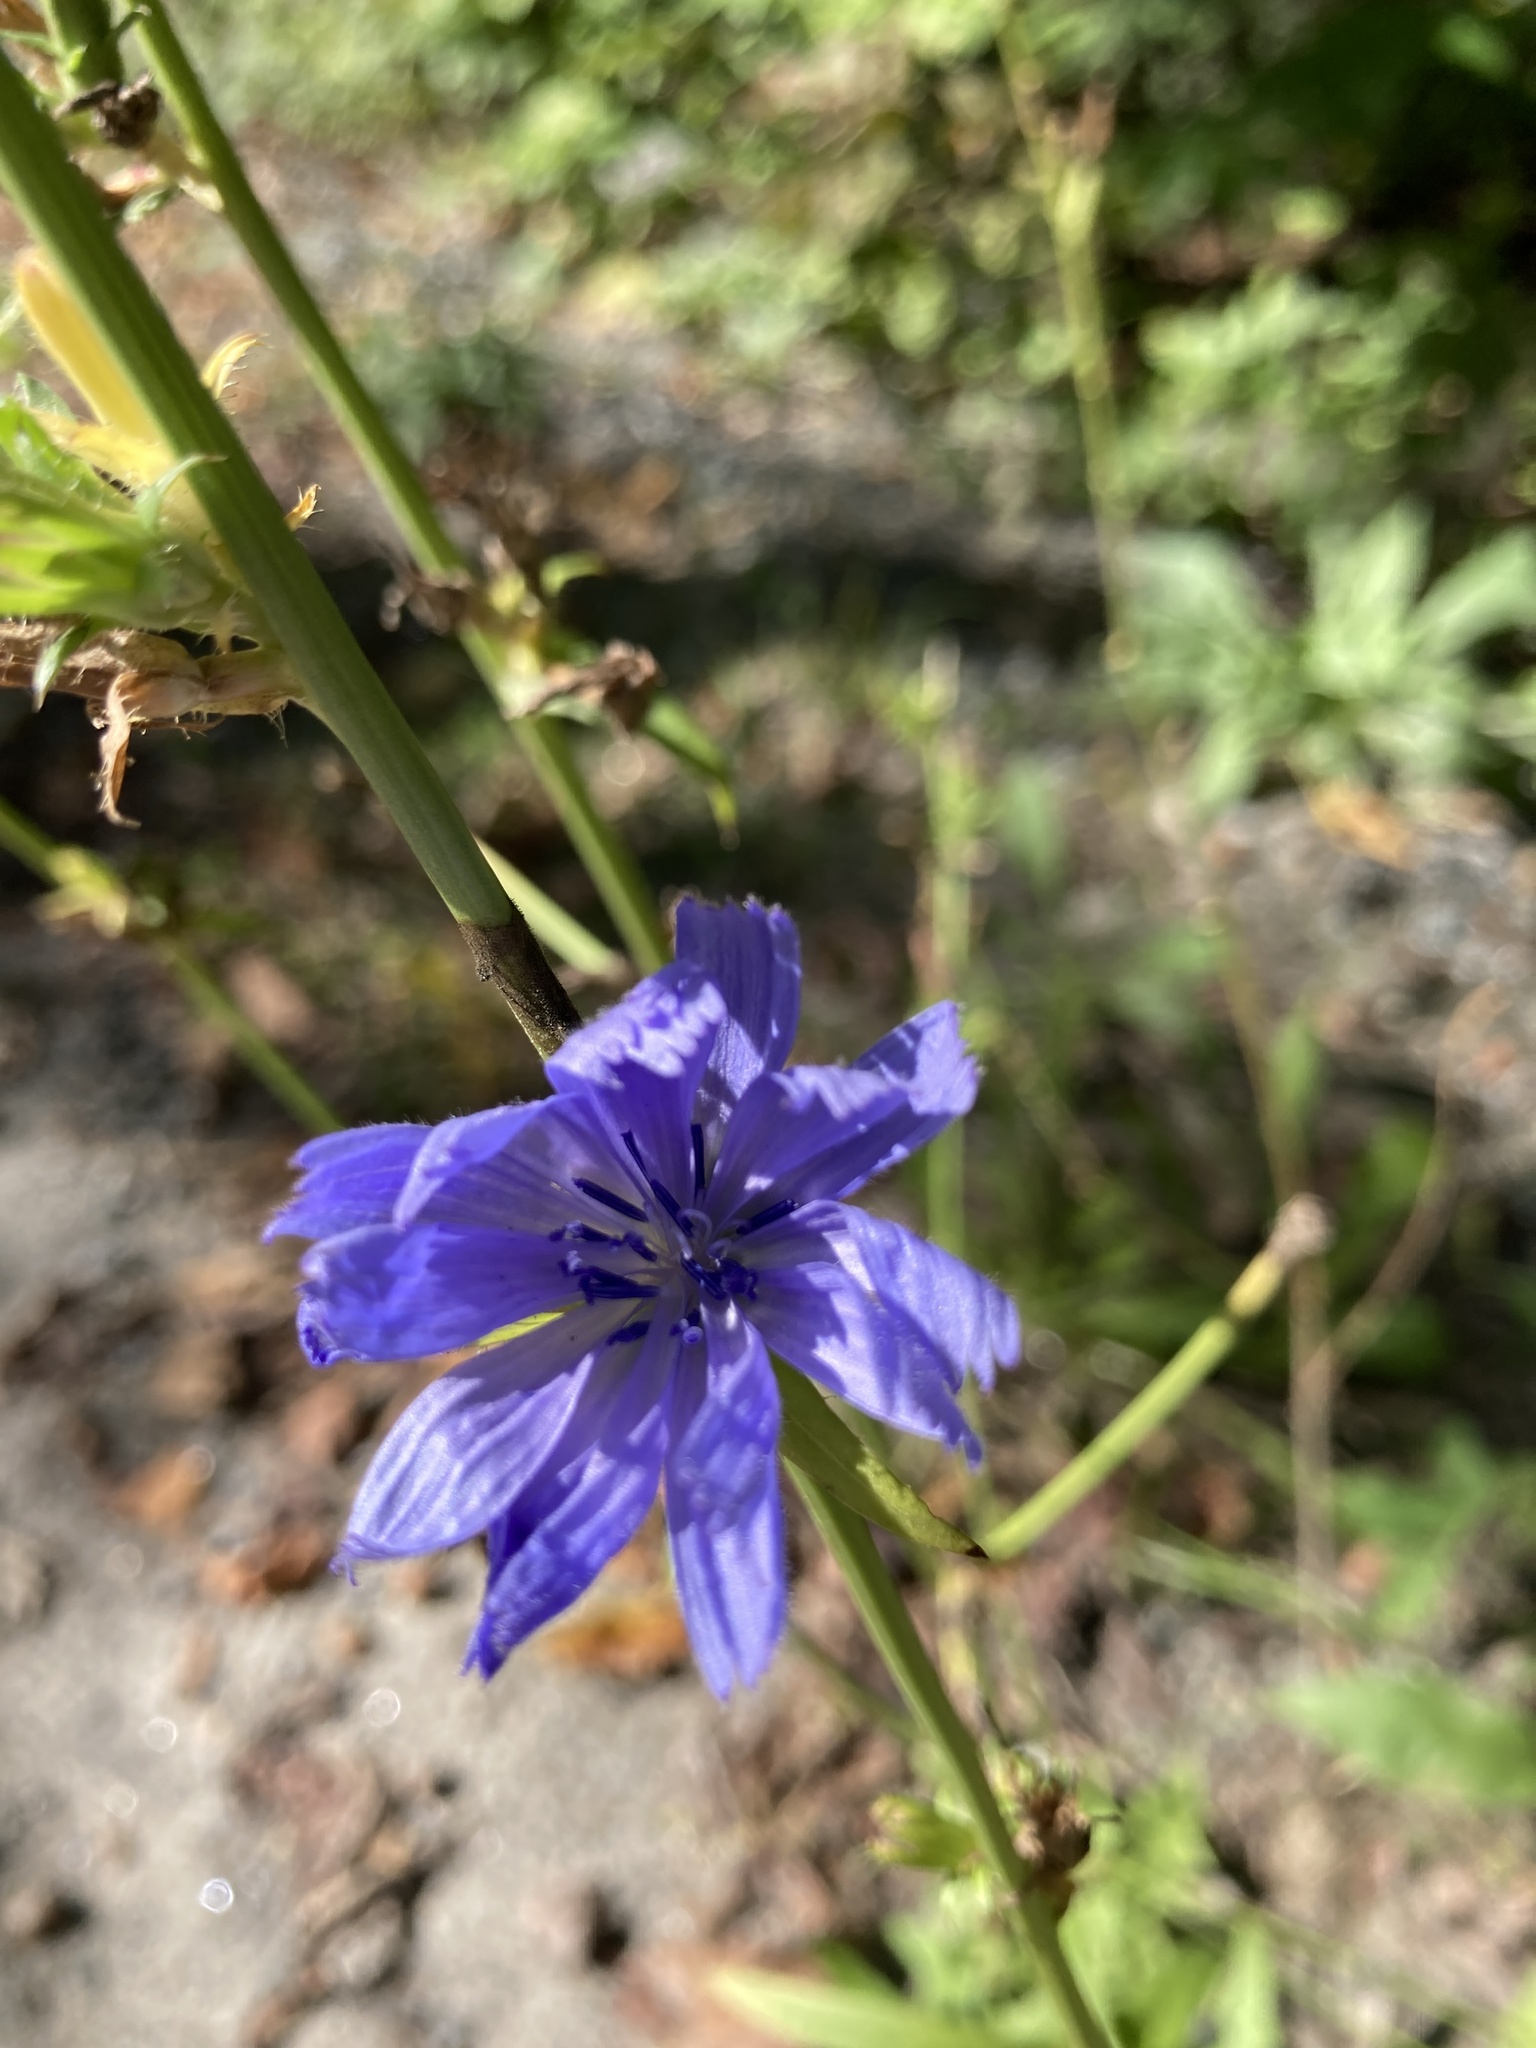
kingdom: Plantae
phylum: Tracheophyta
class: Magnoliopsida
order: Asterales
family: Asteraceae
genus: Cichorium
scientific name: Cichorium intybus
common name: Chicory
